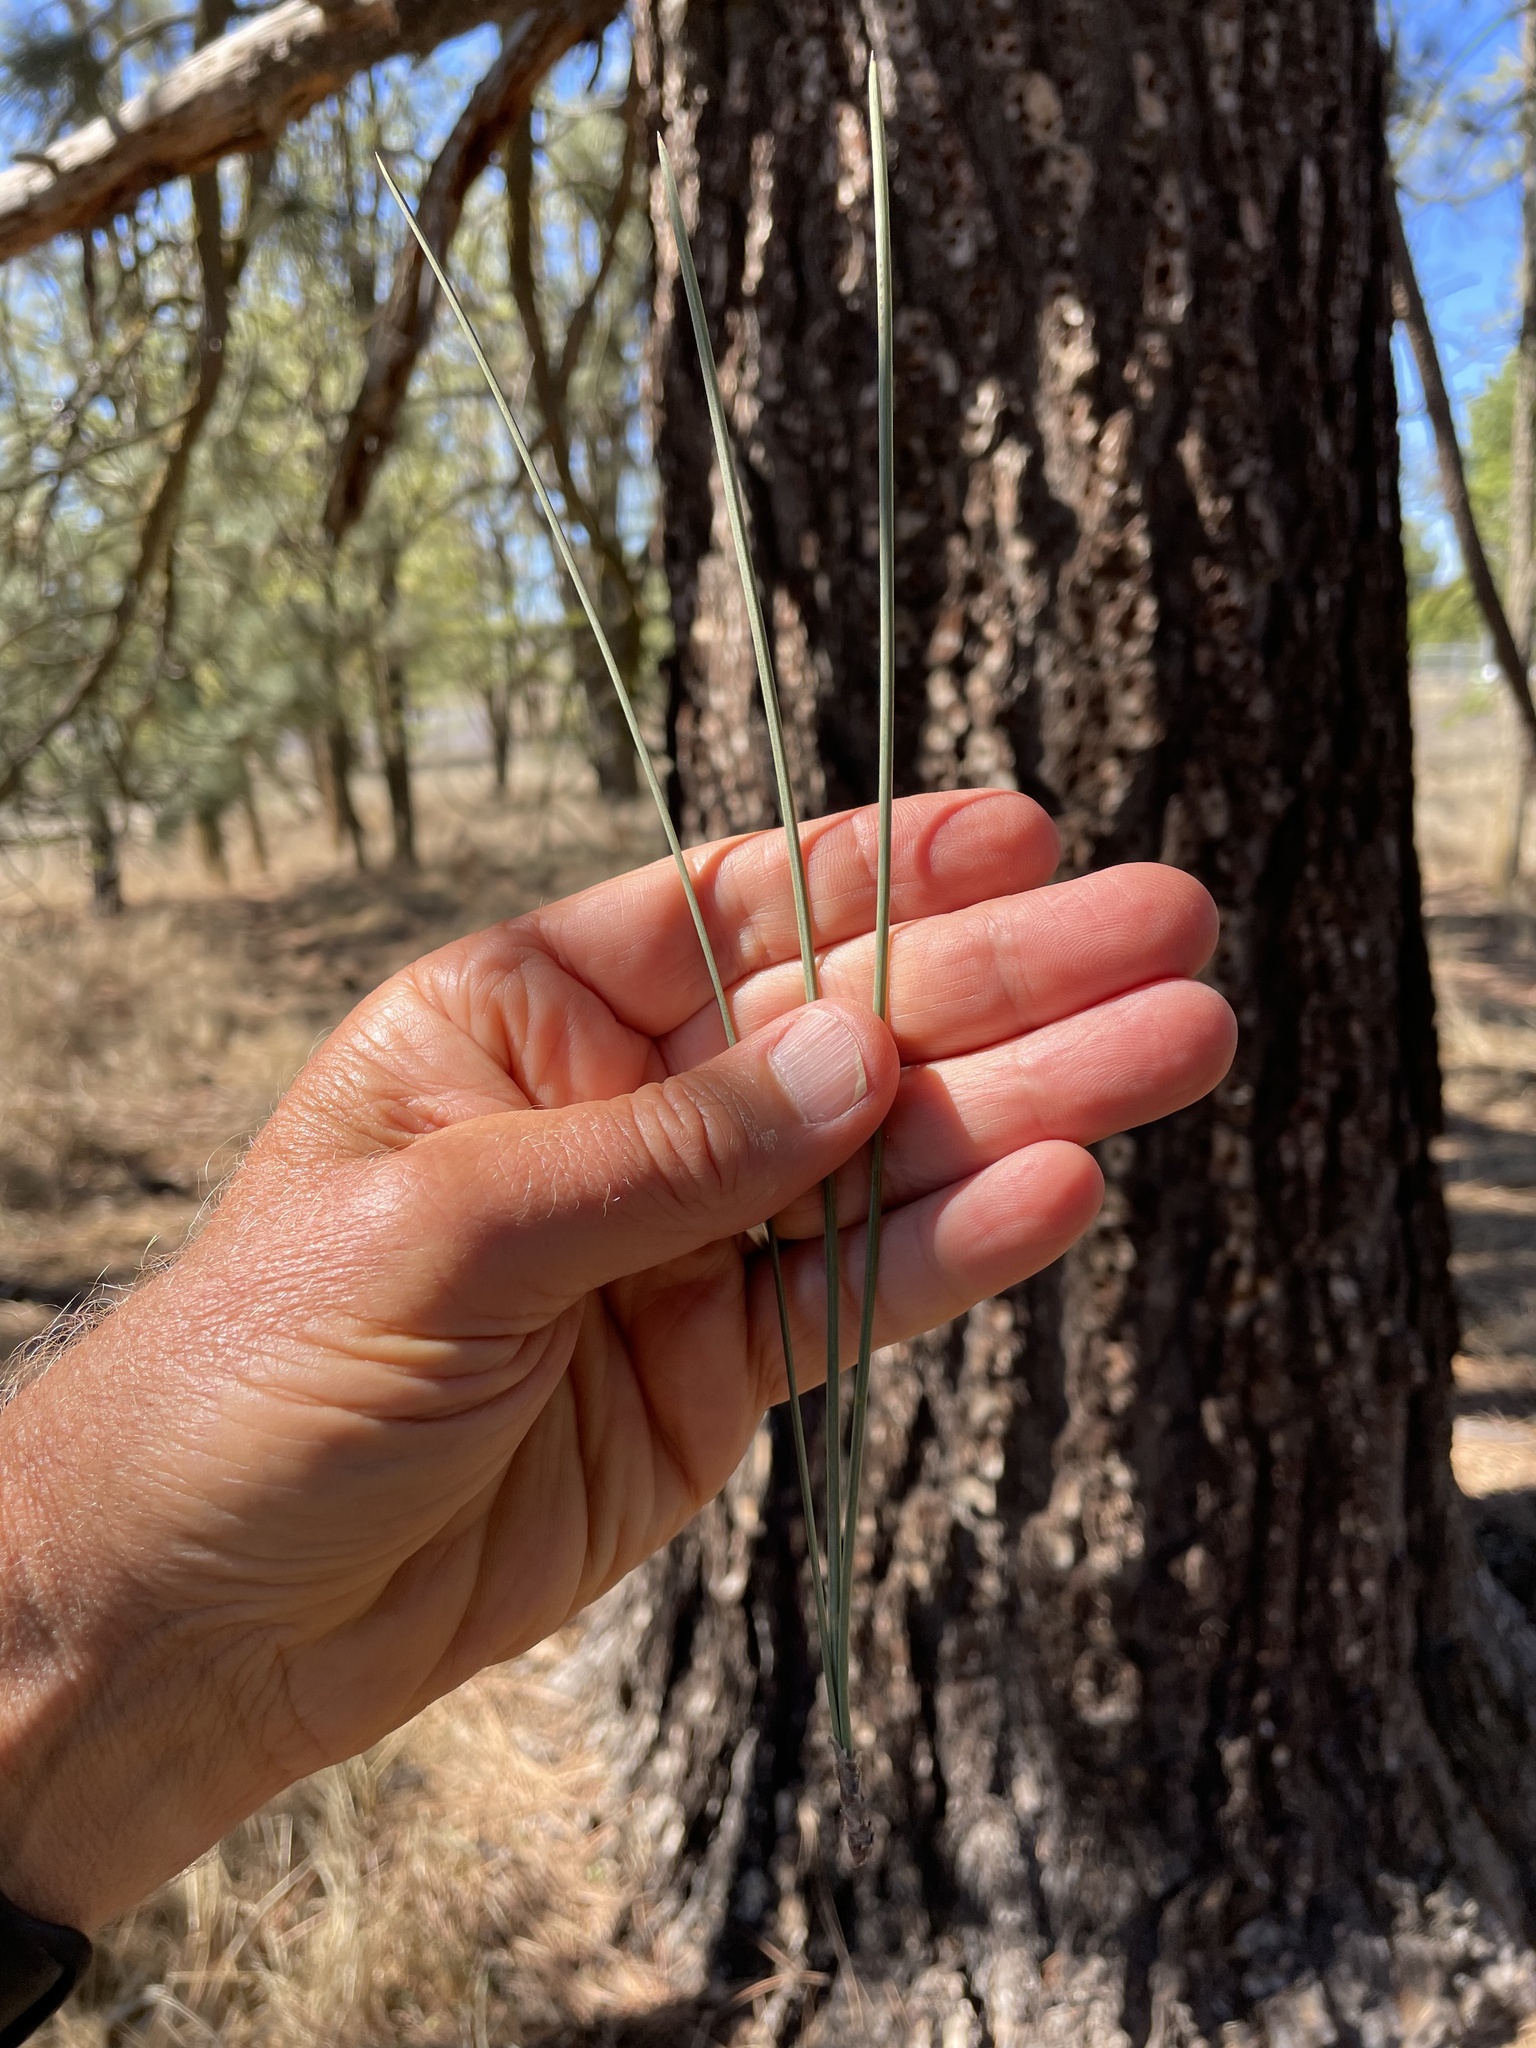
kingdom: Plantae
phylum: Tracheophyta
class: Pinopsida
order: Pinales
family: Pinaceae
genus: Pinus
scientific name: Pinus coulteri
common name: Coulter pine
